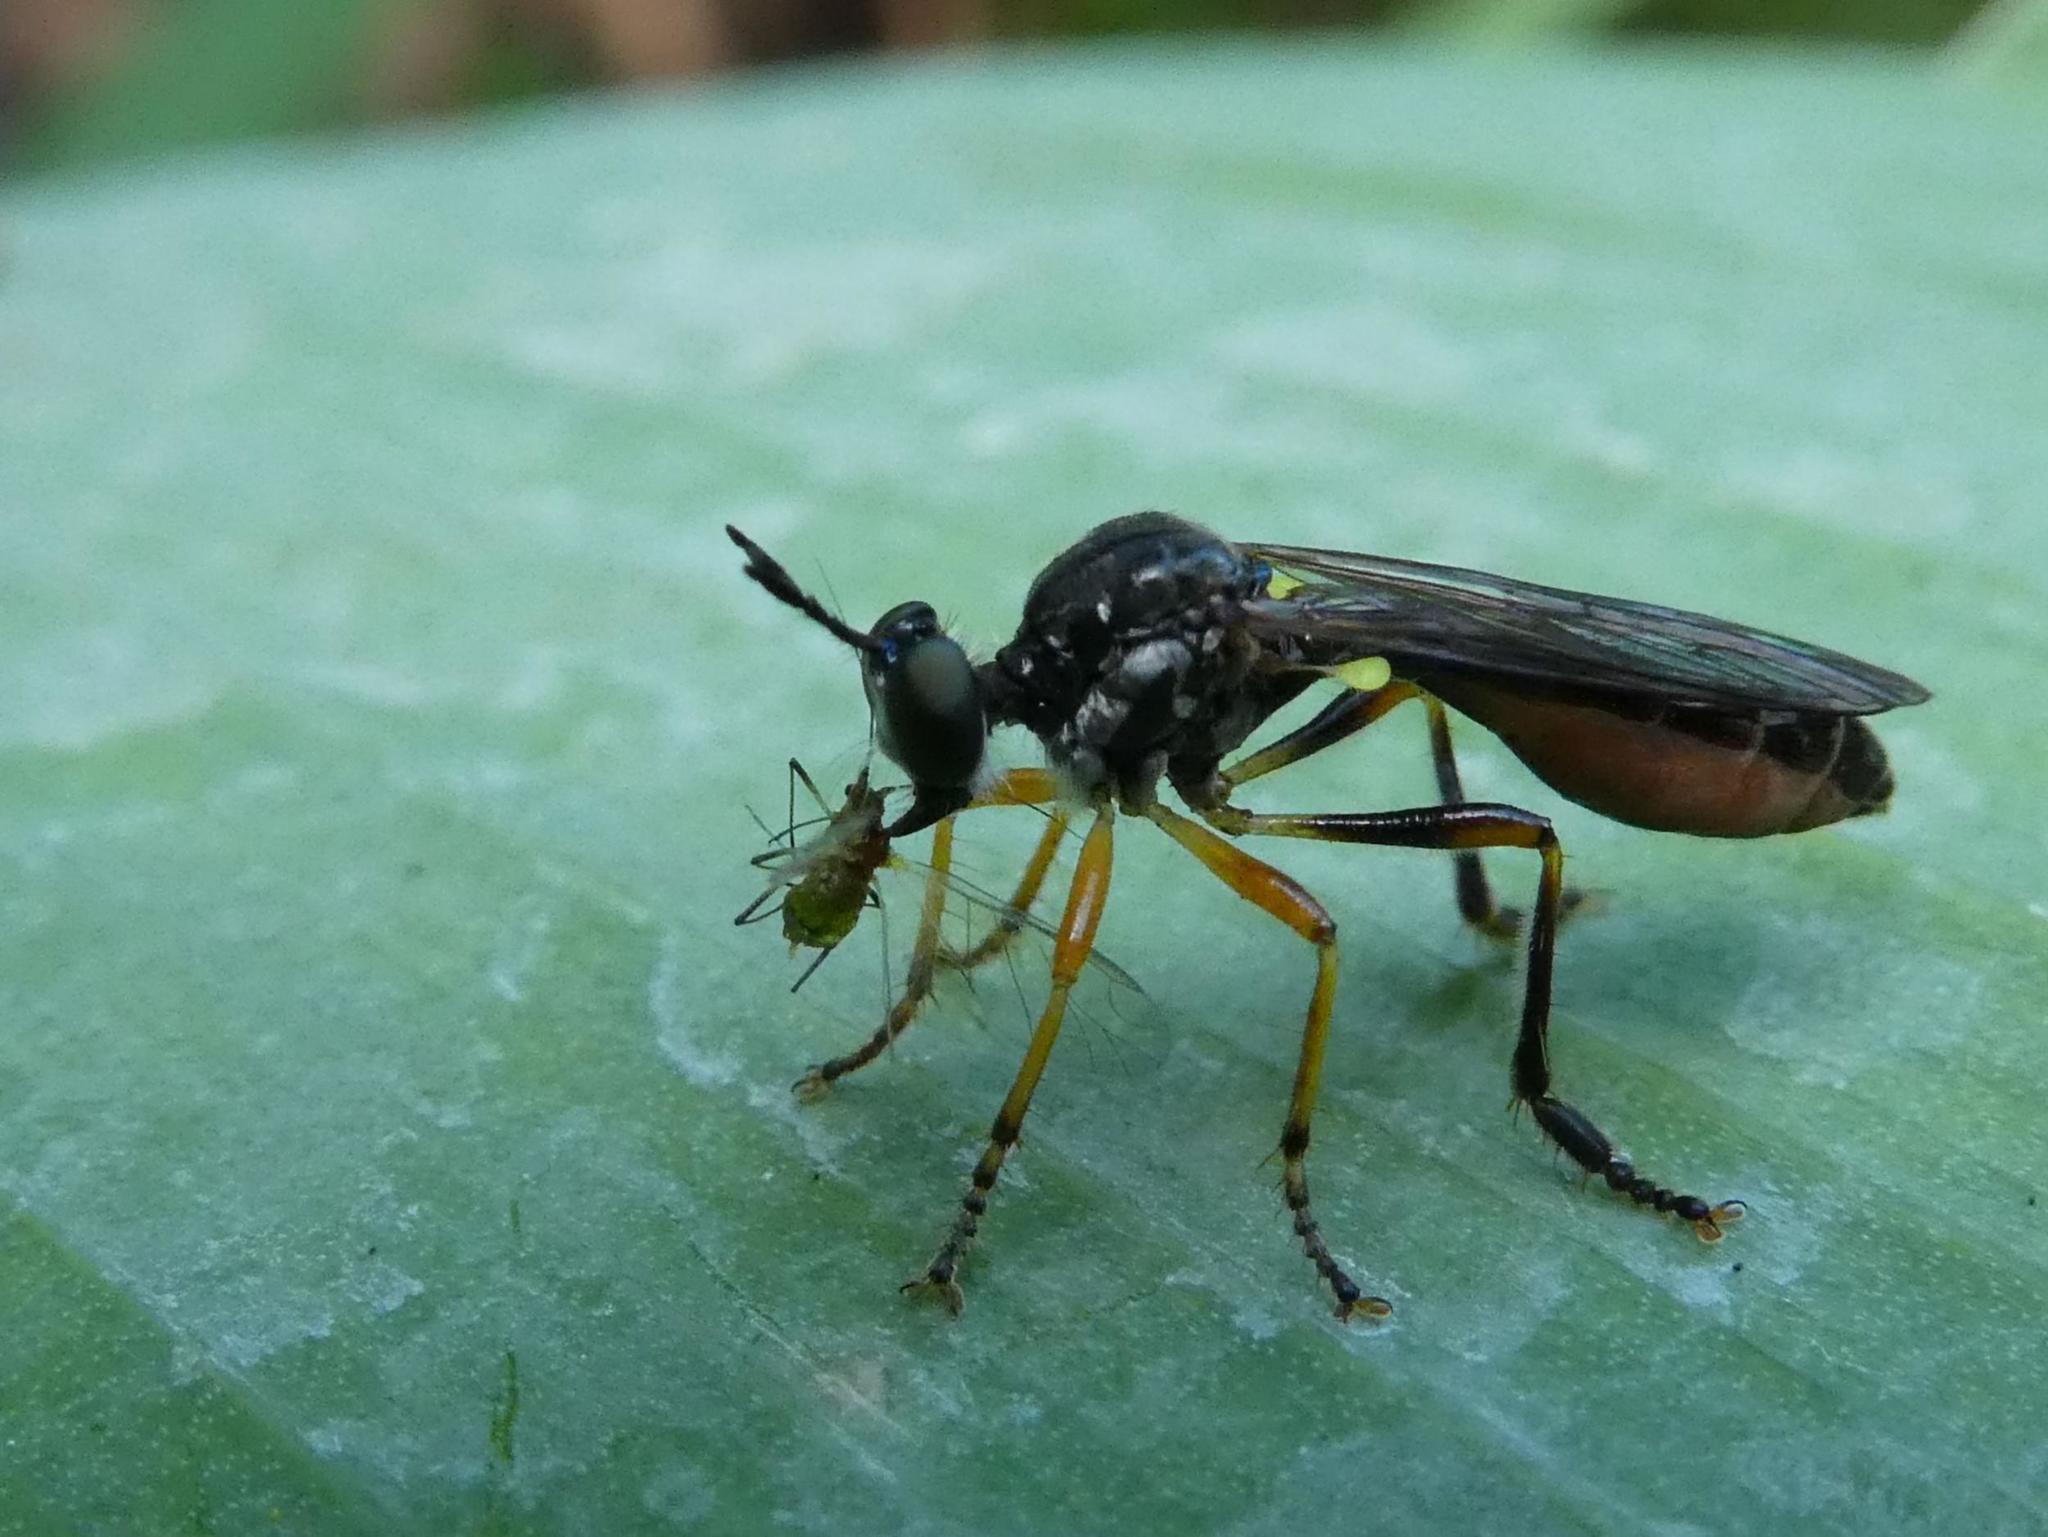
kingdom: Animalia
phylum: Arthropoda
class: Insecta
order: Diptera
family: Asilidae
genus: Dioctria
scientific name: Dioctria hyalipennis
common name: Stripe-legged robberfly
